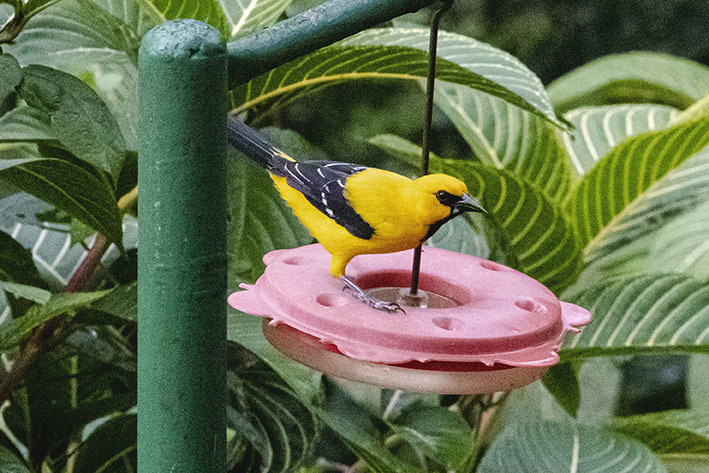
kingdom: Animalia
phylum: Chordata
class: Aves
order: Passeriformes
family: Icteridae
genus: Icterus
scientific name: Icterus nigrogularis
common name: Yellow oriole
